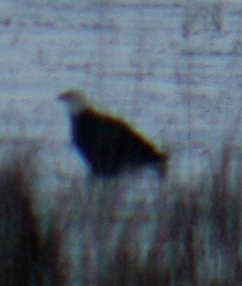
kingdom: Animalia
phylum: Chordata
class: Aves
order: Accipitriformes
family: Accipitridae
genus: Haliaeetus
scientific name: Haliaeetus leucocephalus
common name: Bald eagle
